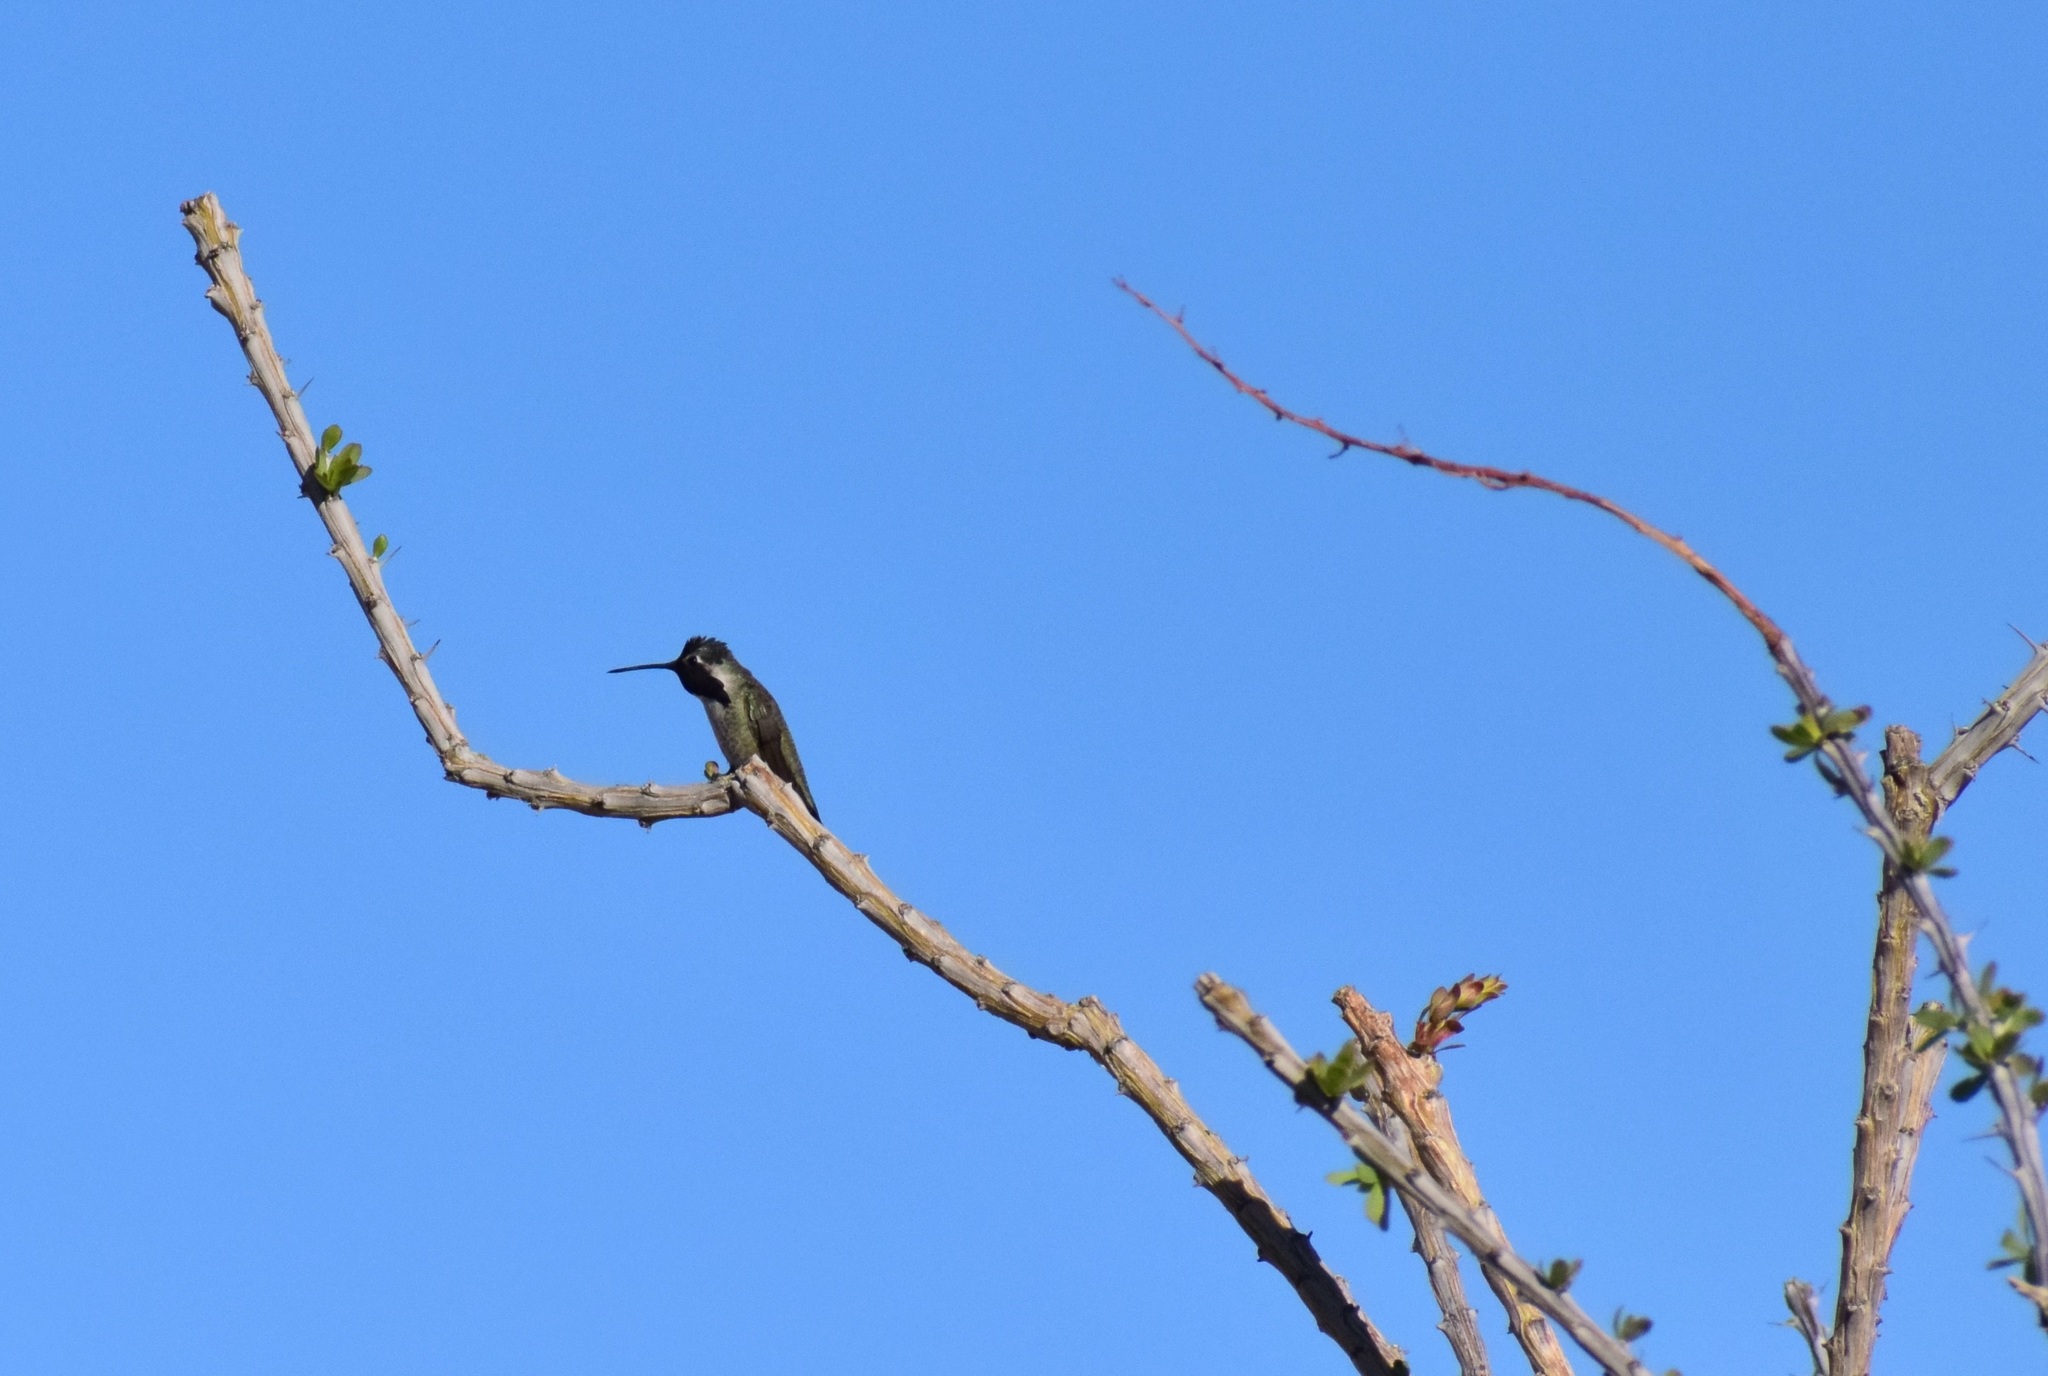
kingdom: Animalia
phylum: Chordata
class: Aves
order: Apodiformes
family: Trochilidae
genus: Calypte
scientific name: Calypte costae
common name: Costa's hummingbird
